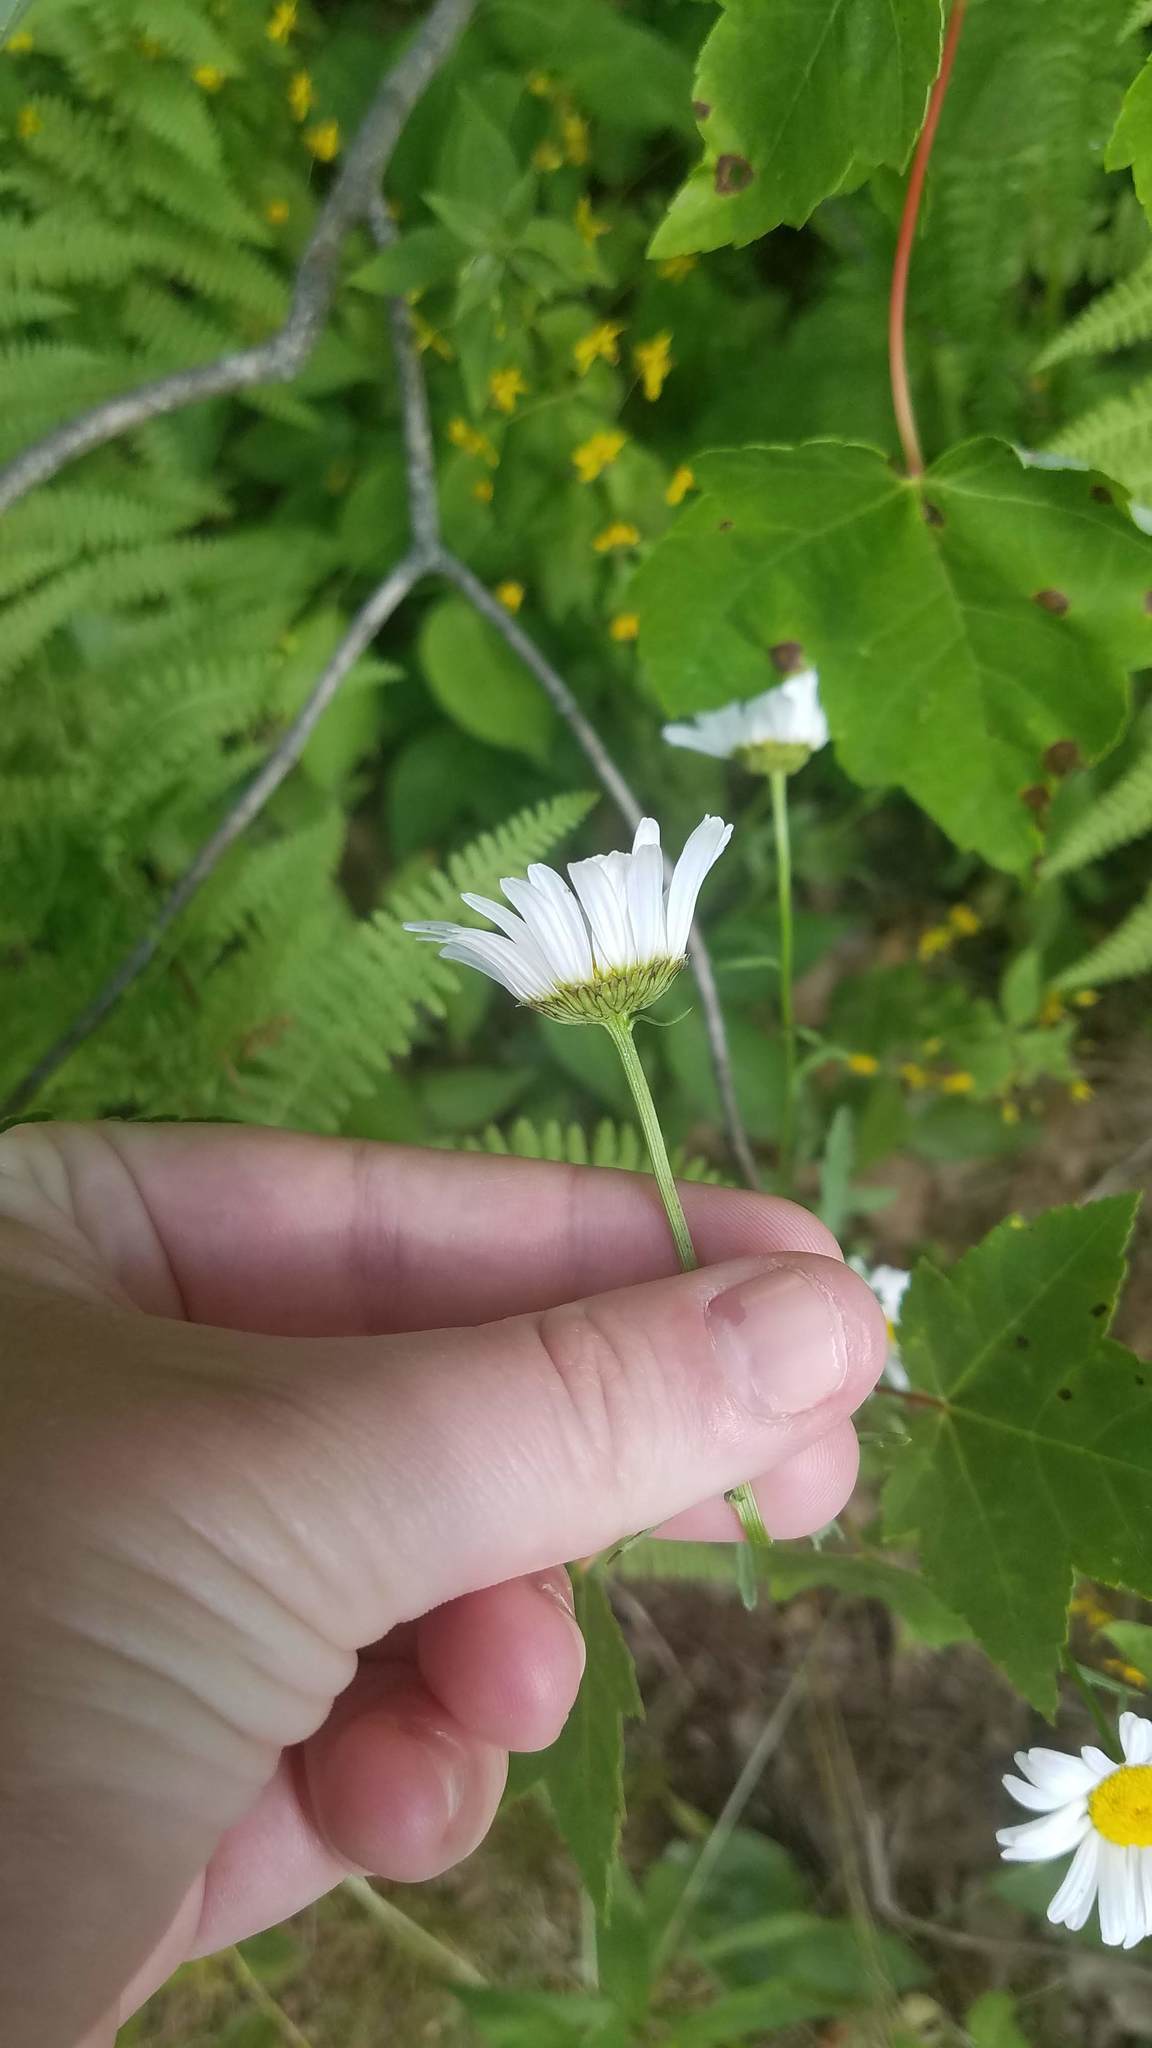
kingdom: Plantae
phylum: Tracheophyta
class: Magnoliopsida
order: Asterales
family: Asteraceae
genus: Leucanthemum
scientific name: Leucanthemum vulgare
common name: Oxeye daisy
